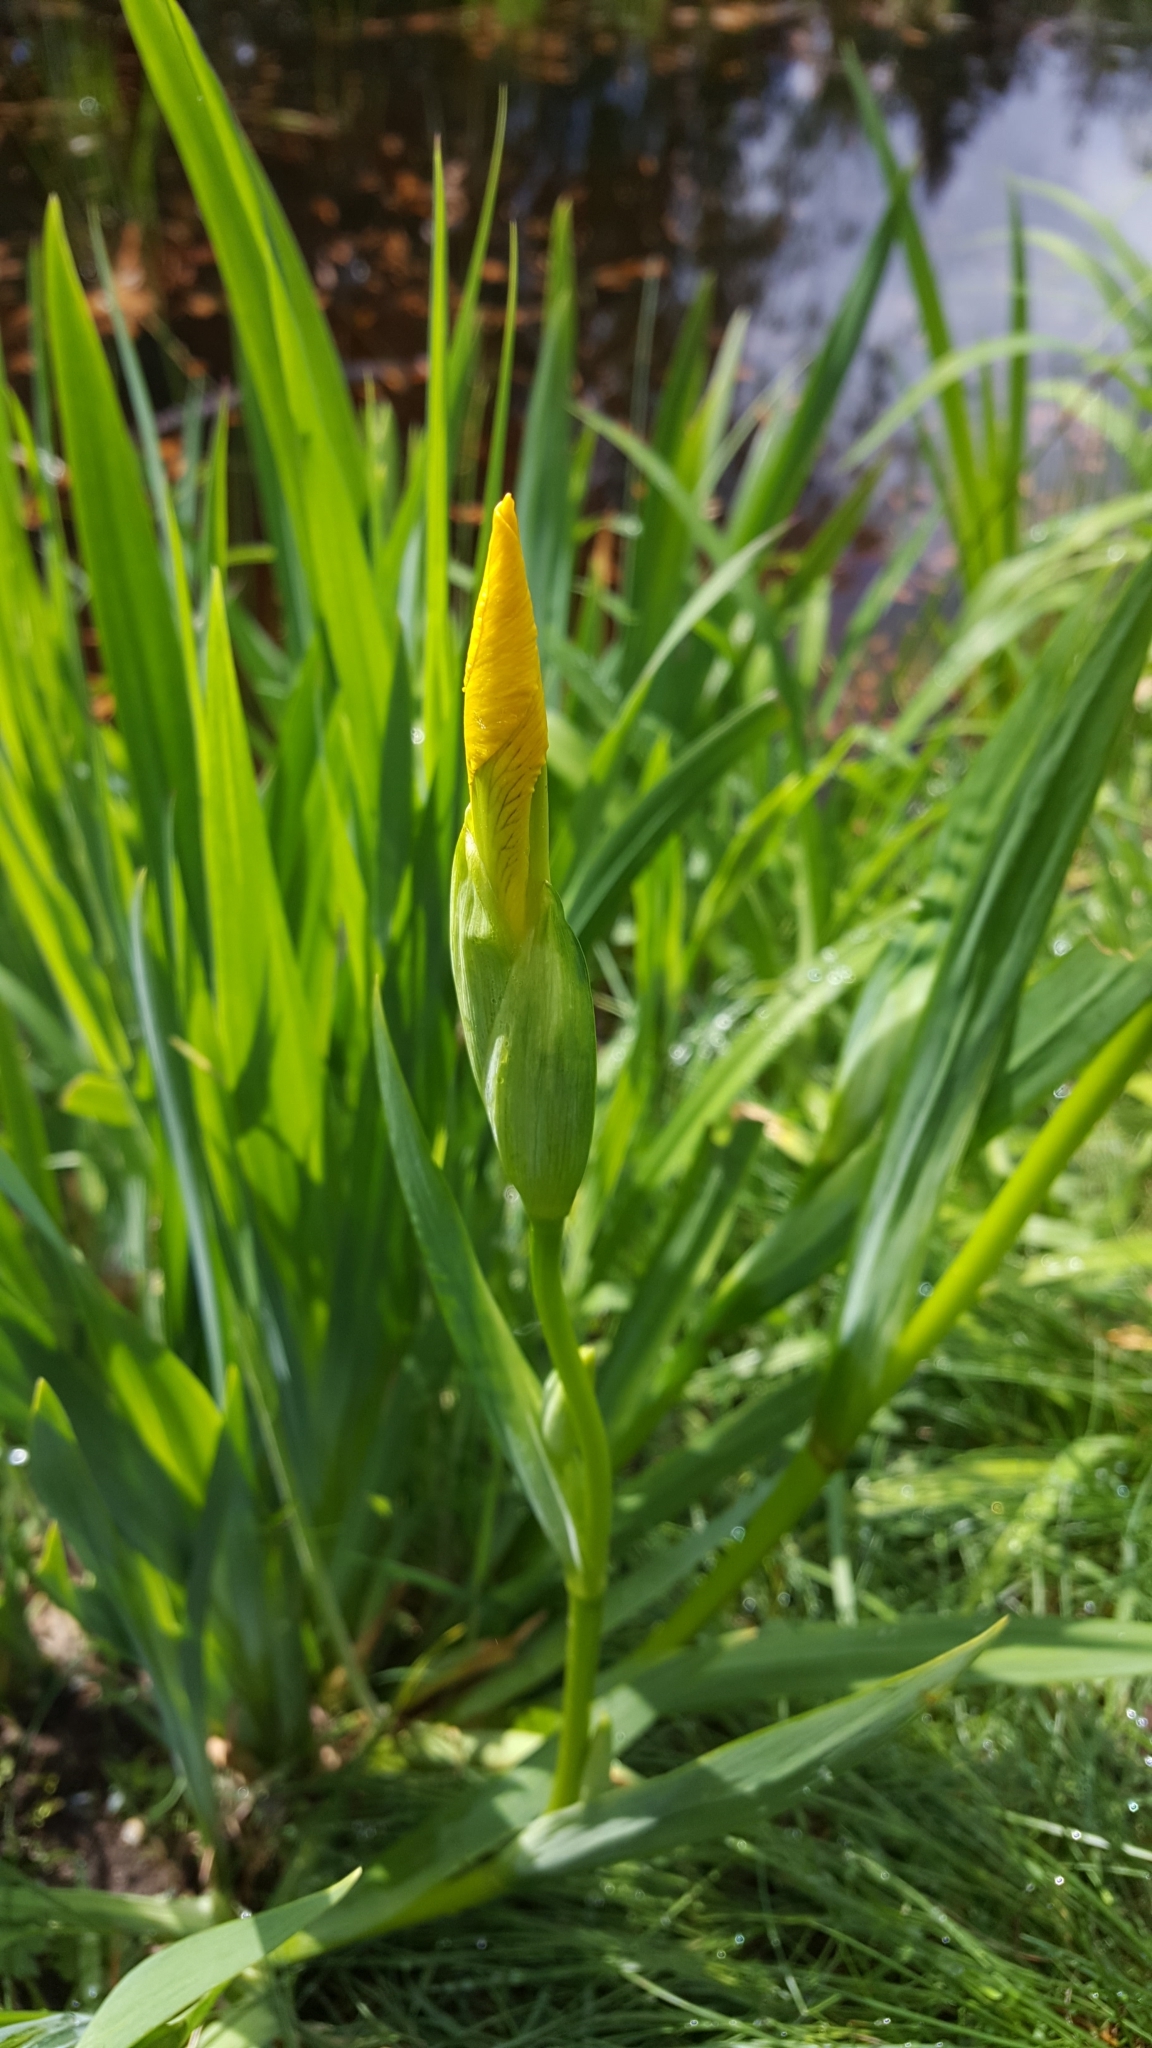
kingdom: Plantae
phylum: Tracheophyta
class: Liliopsida
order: Asparagales
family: Iridaceae
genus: Iris
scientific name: Iris pseudacorus
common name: Yellow flag
